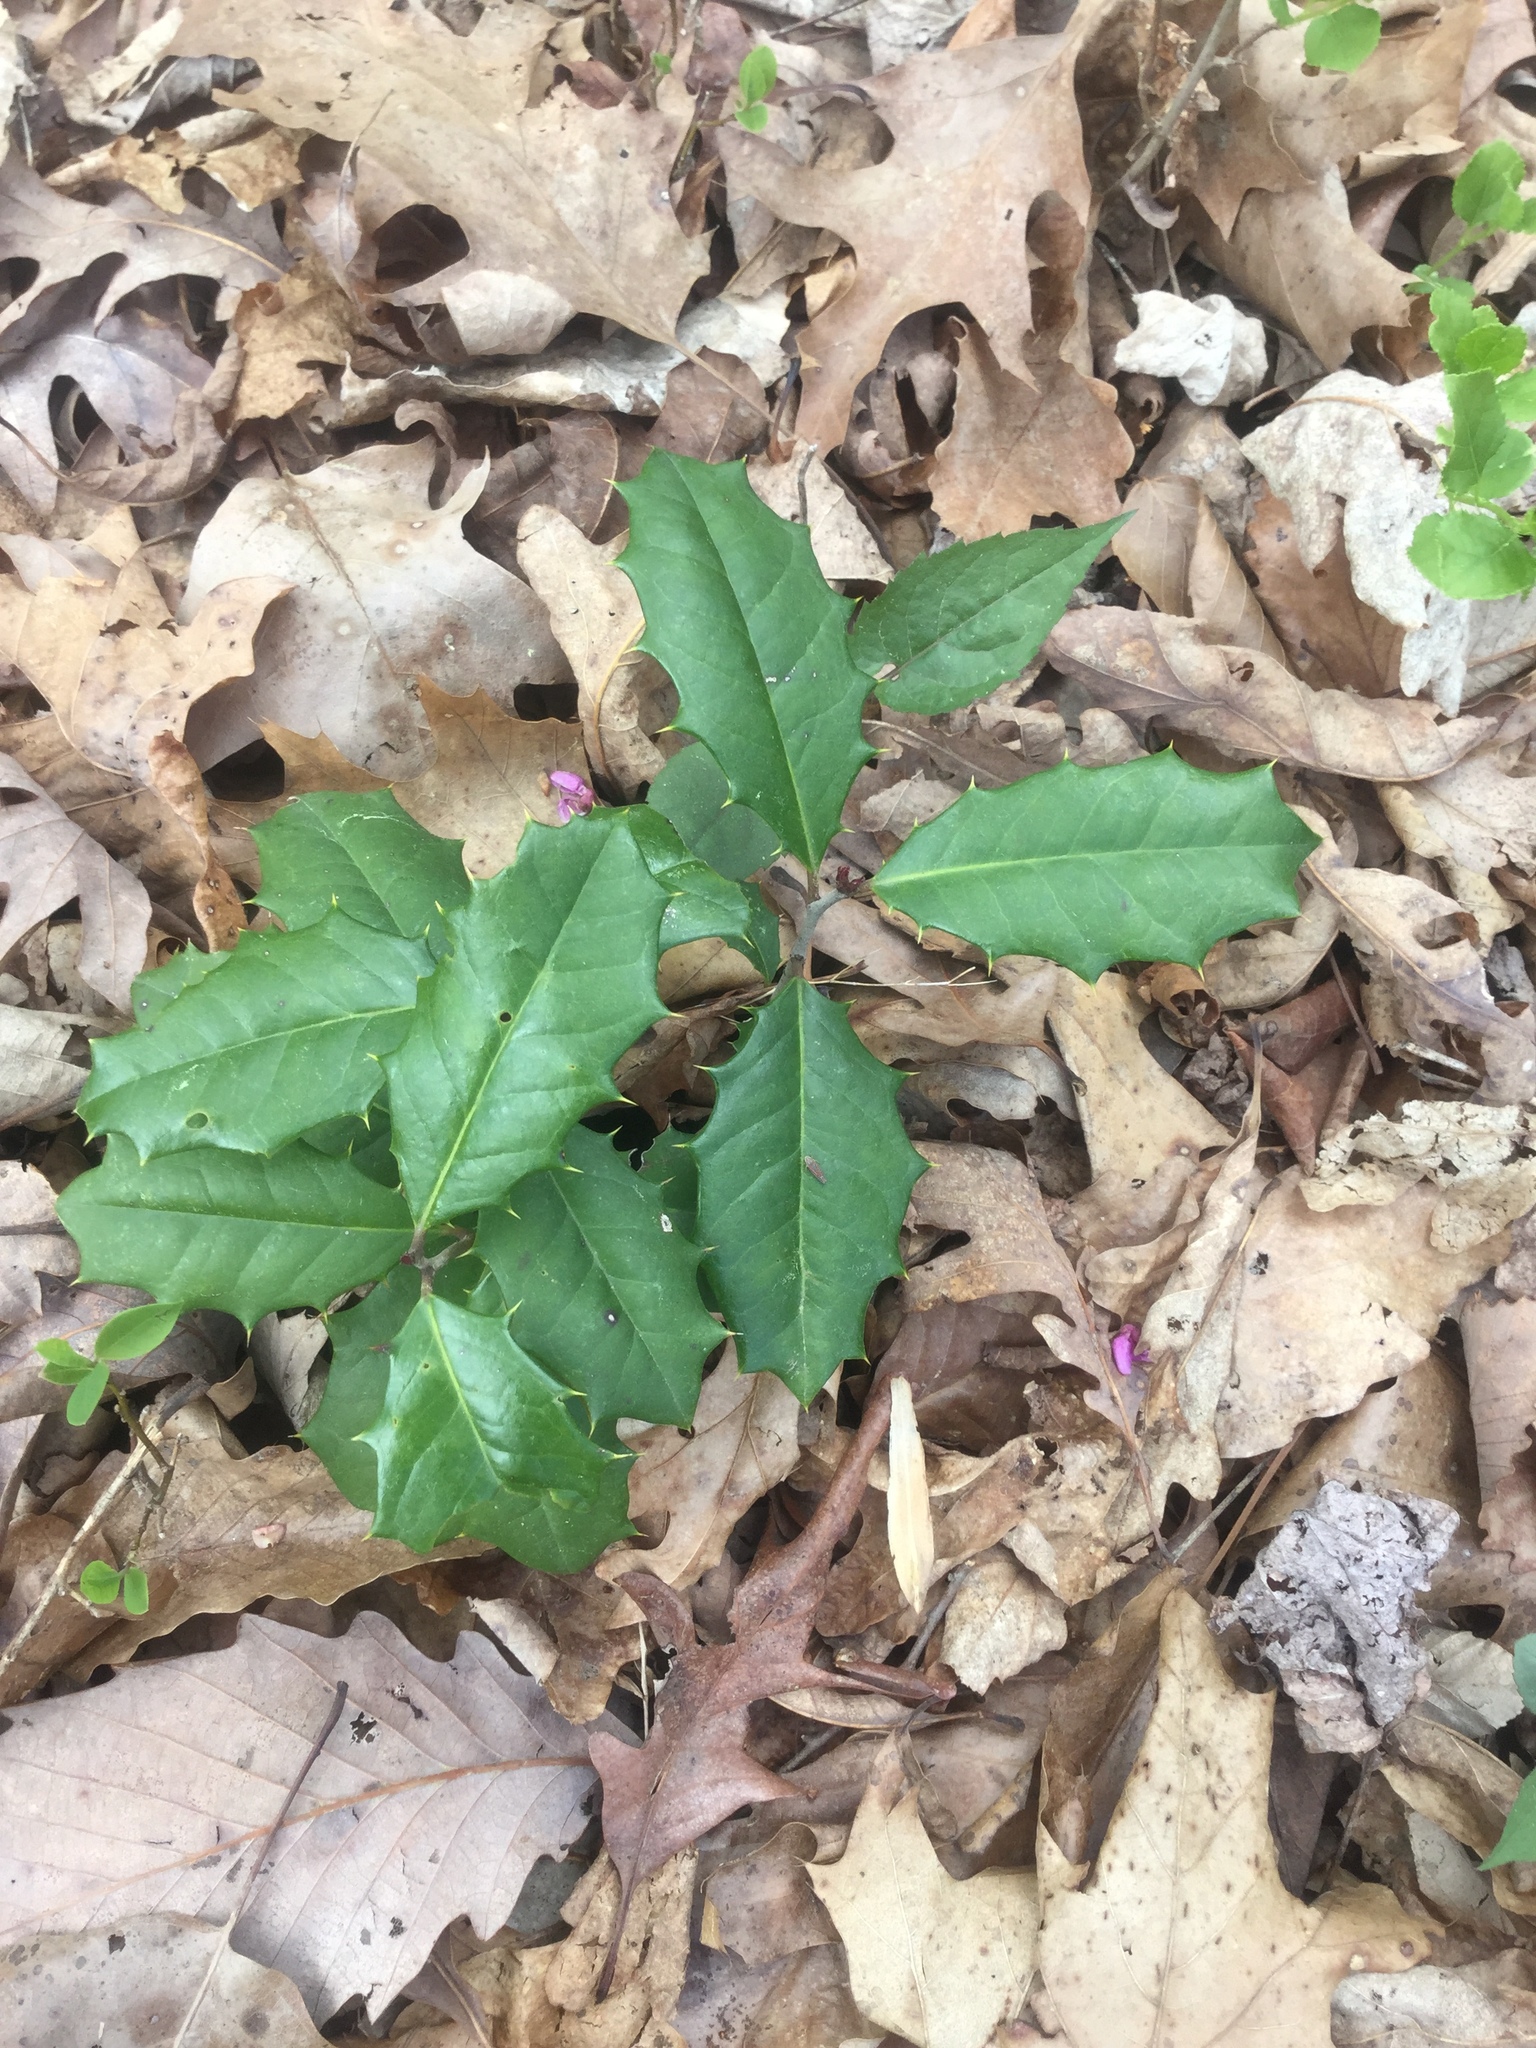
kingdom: Plantae
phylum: Tracheophyta
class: Magnoliopsida
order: Aquifoliales
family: Aquifoliaceae
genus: Ilex
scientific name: Ilex opaca
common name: American holly
